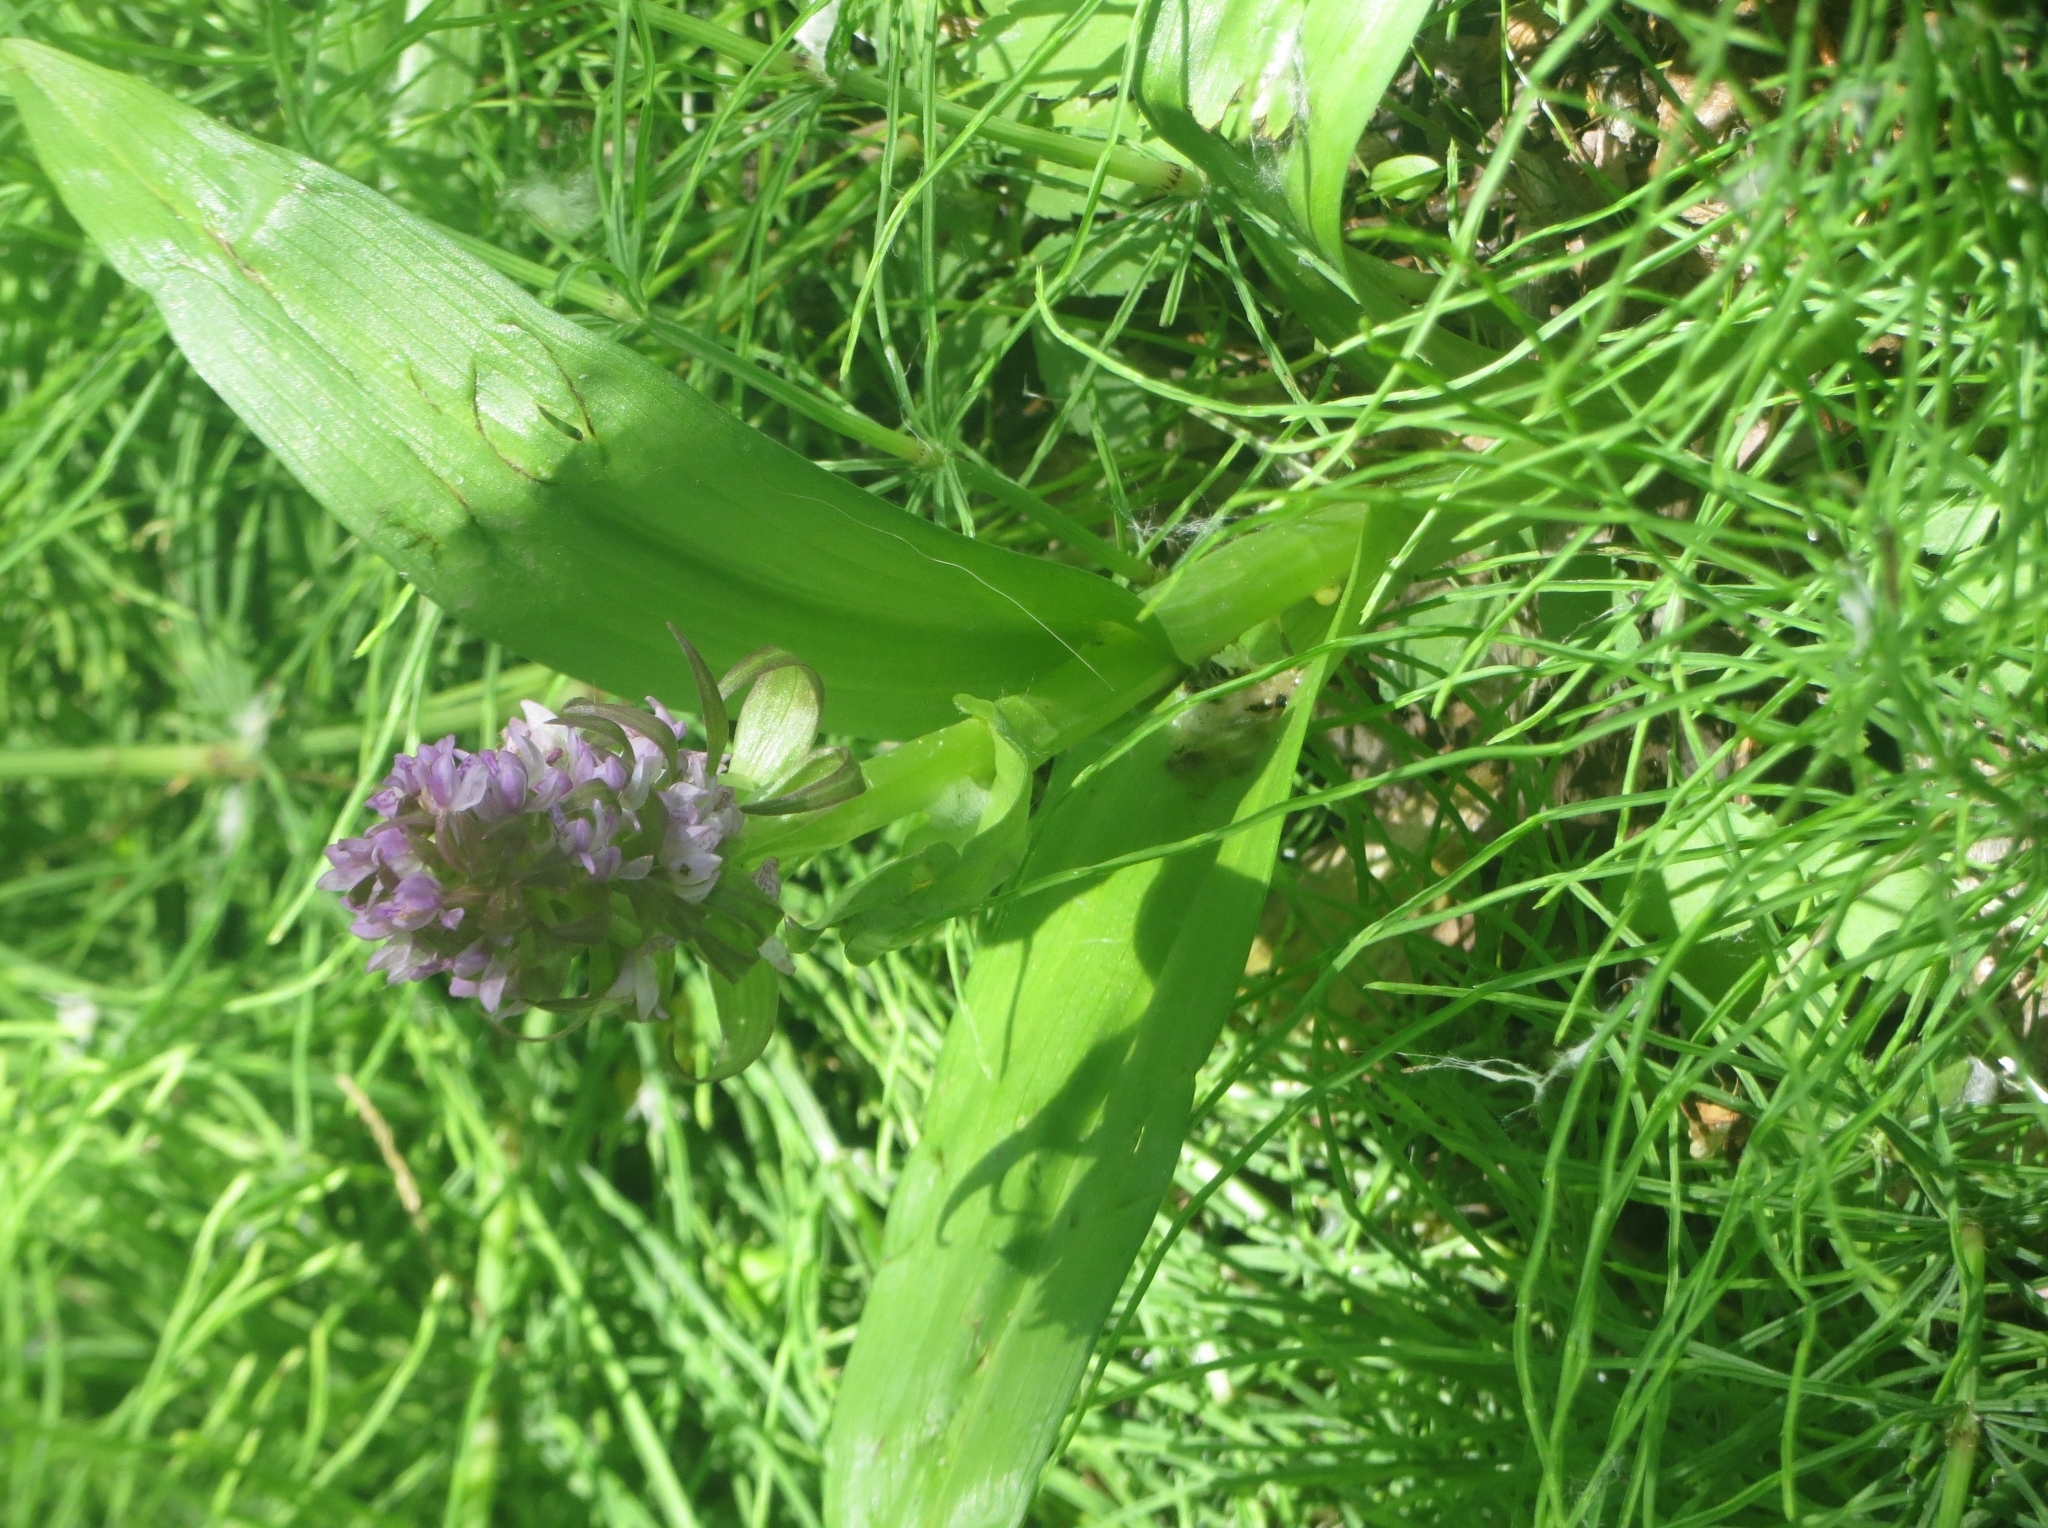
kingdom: Plantae
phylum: Tracheophyta
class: Liliopsida
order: Asparagales
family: Orchidaceae
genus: Dactylorhiza
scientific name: Dactylorhiza incarnata
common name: Early marsh-orchid
